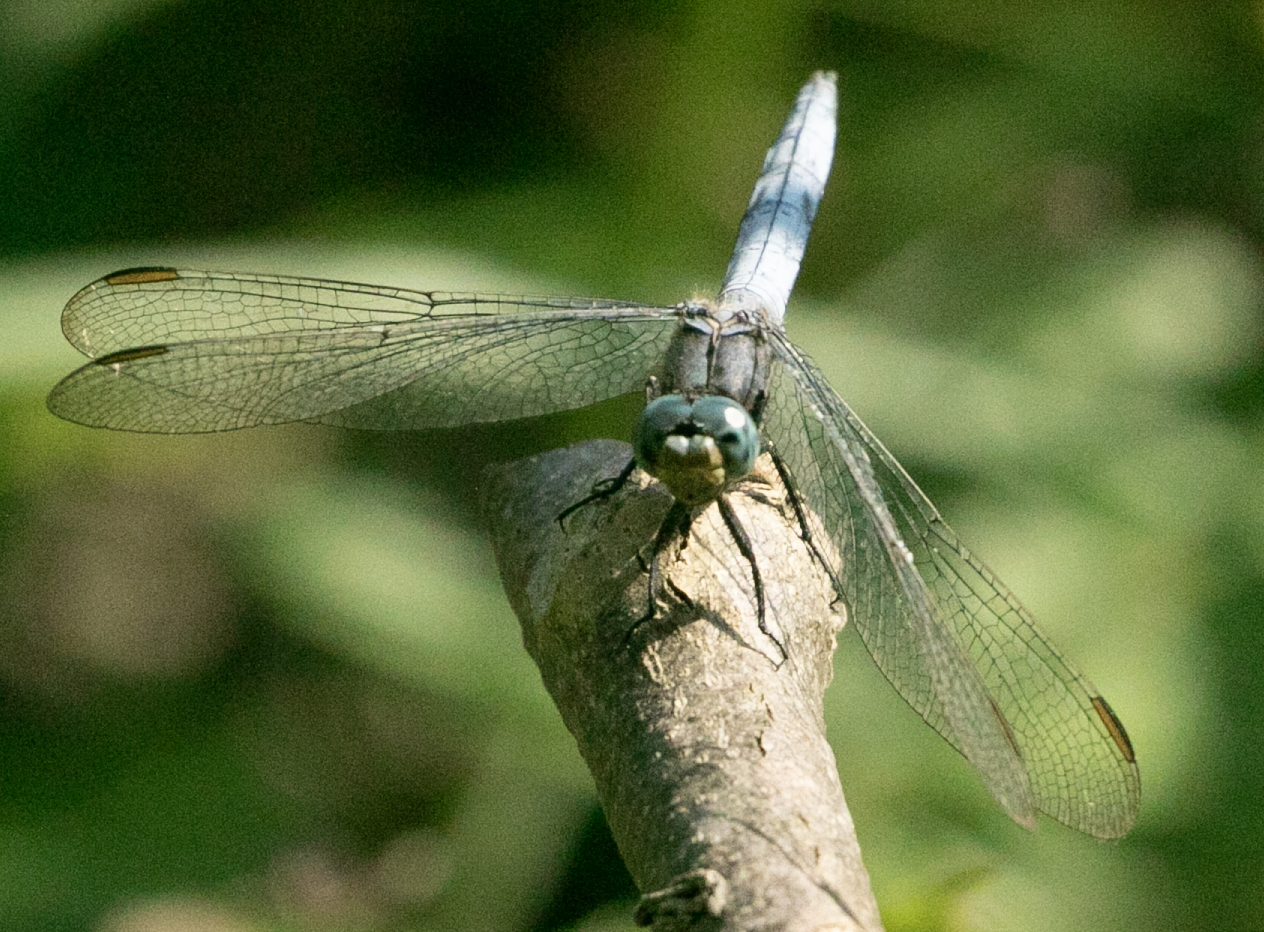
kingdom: Animalia
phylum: Arthropoda
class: Insecta
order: Odonata
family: Libellulidae
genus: Orthetrum
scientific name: Orthetrum coerulescens
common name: Keeled skimmer
